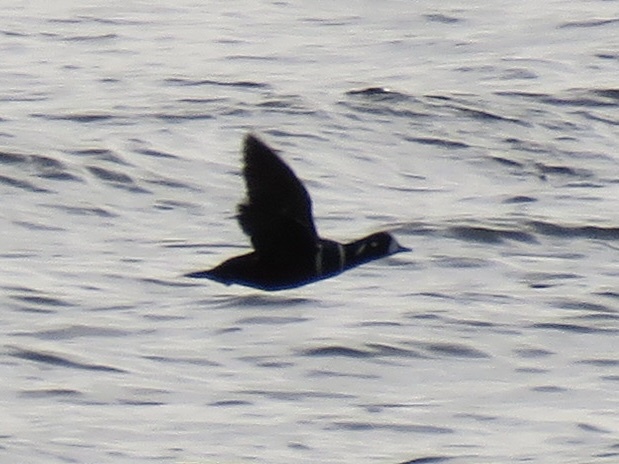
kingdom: Animalia
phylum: Chordata
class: Aves
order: Anseriformes
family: Anatidae
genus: Histrionicus
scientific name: Histrionicus histrionicus
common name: Harlequin duck
